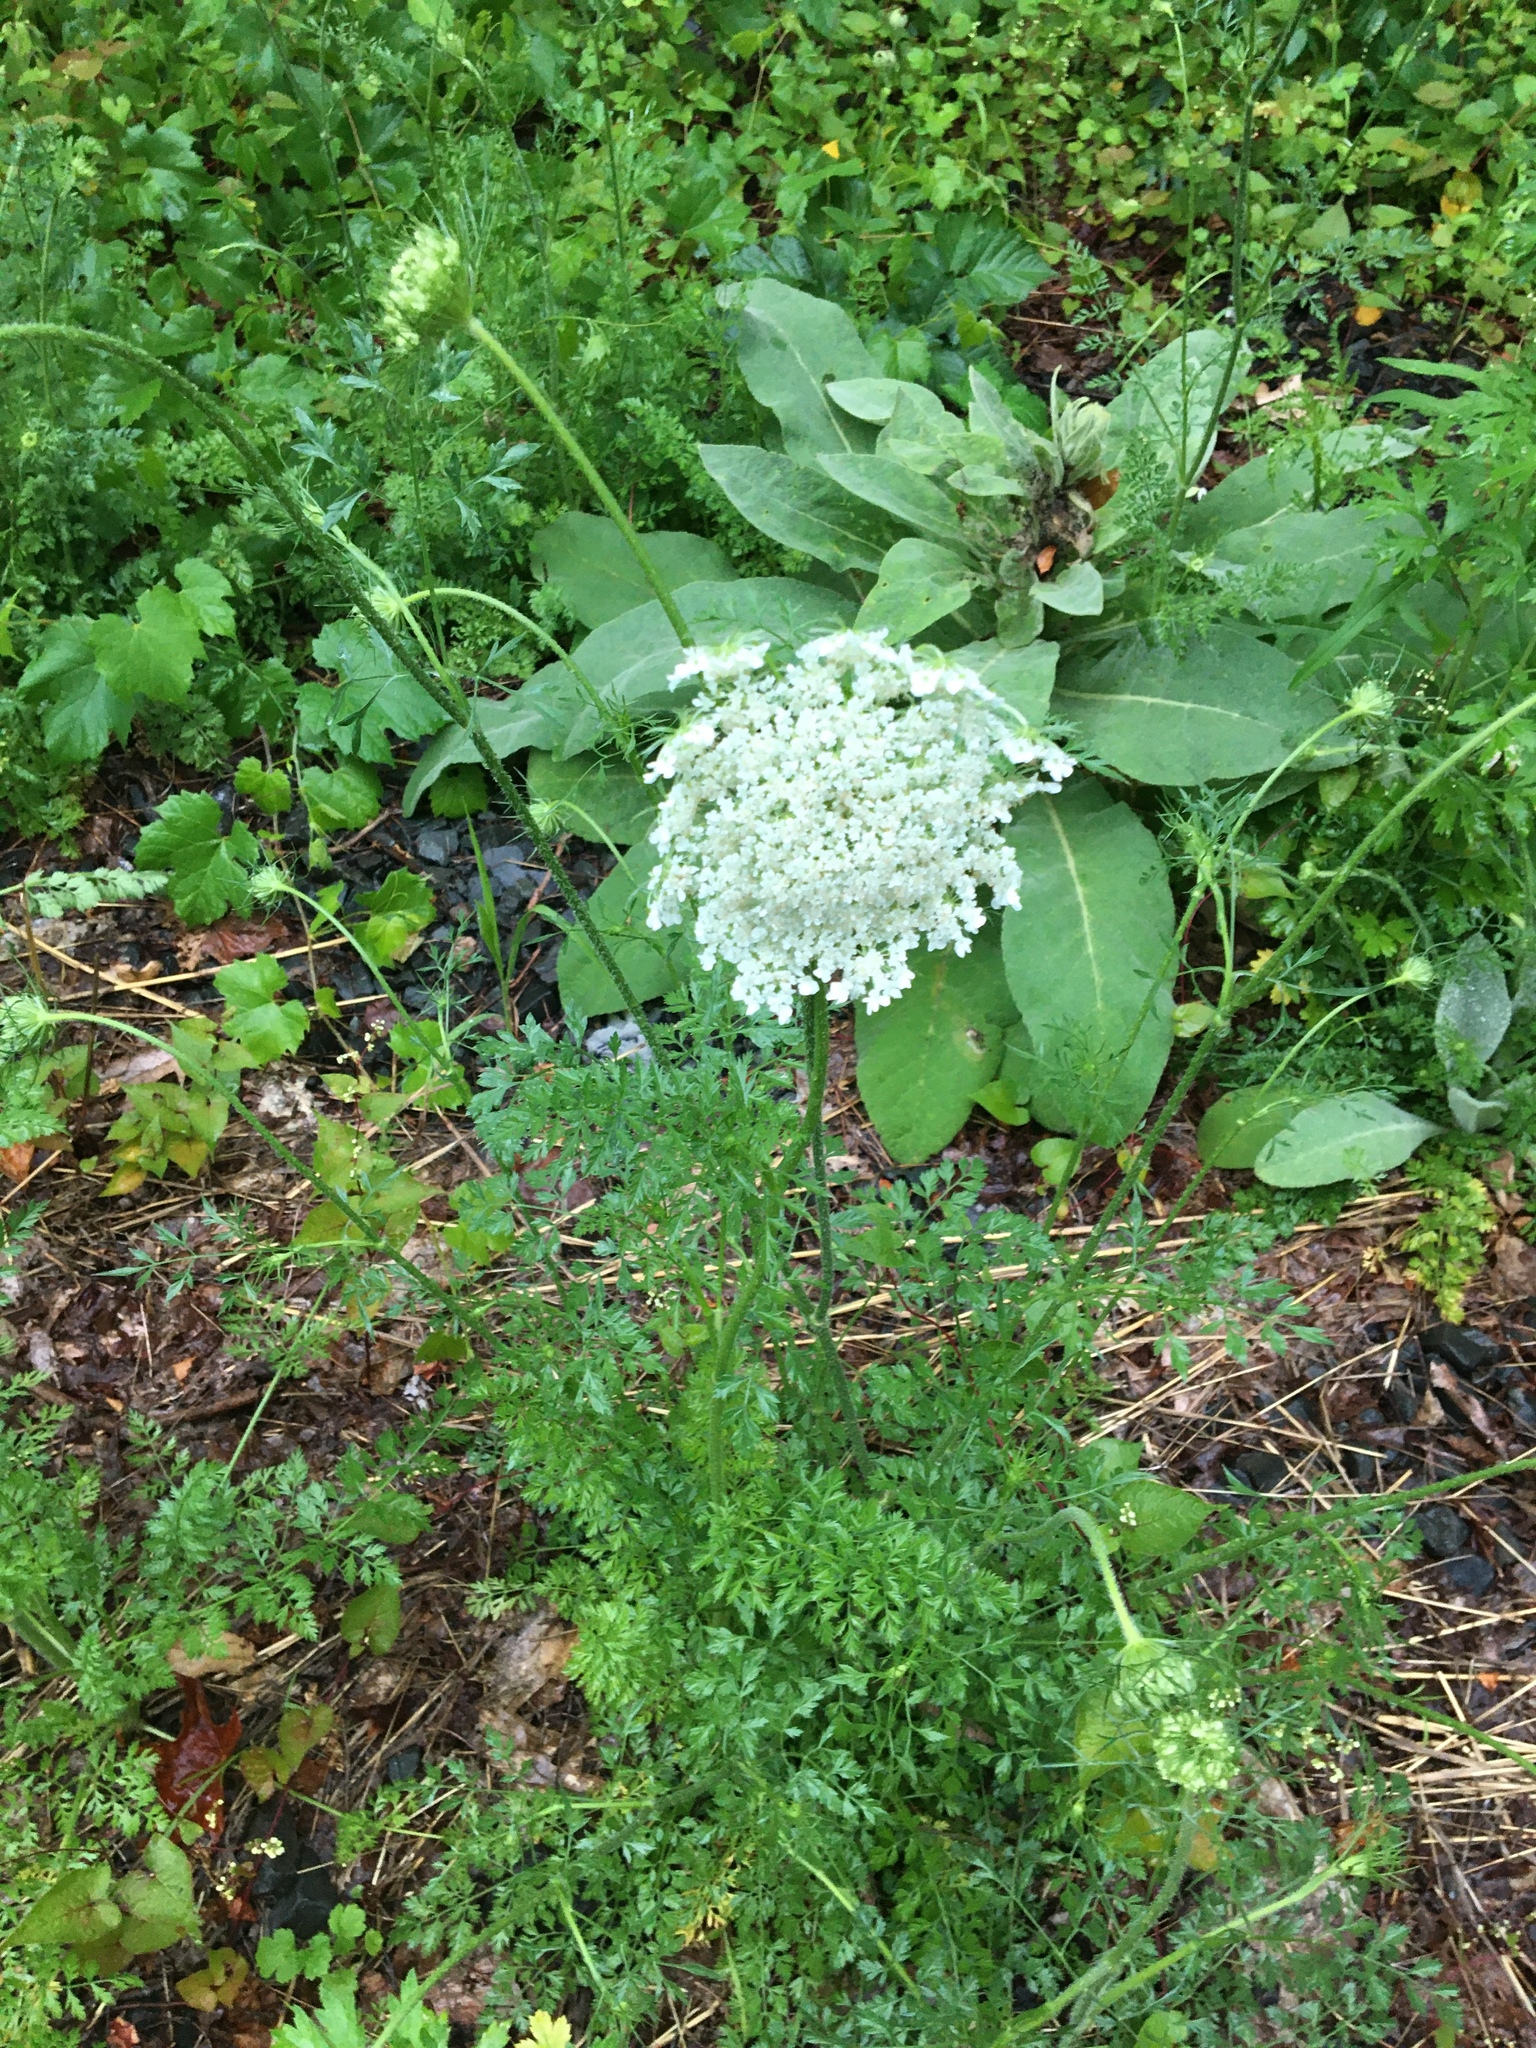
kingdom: Plantae
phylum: Tracheophyta
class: Magnoliopsida
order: Apiales
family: Apiaceae
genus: Daucus
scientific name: Daucus carota
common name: Wild carrot
